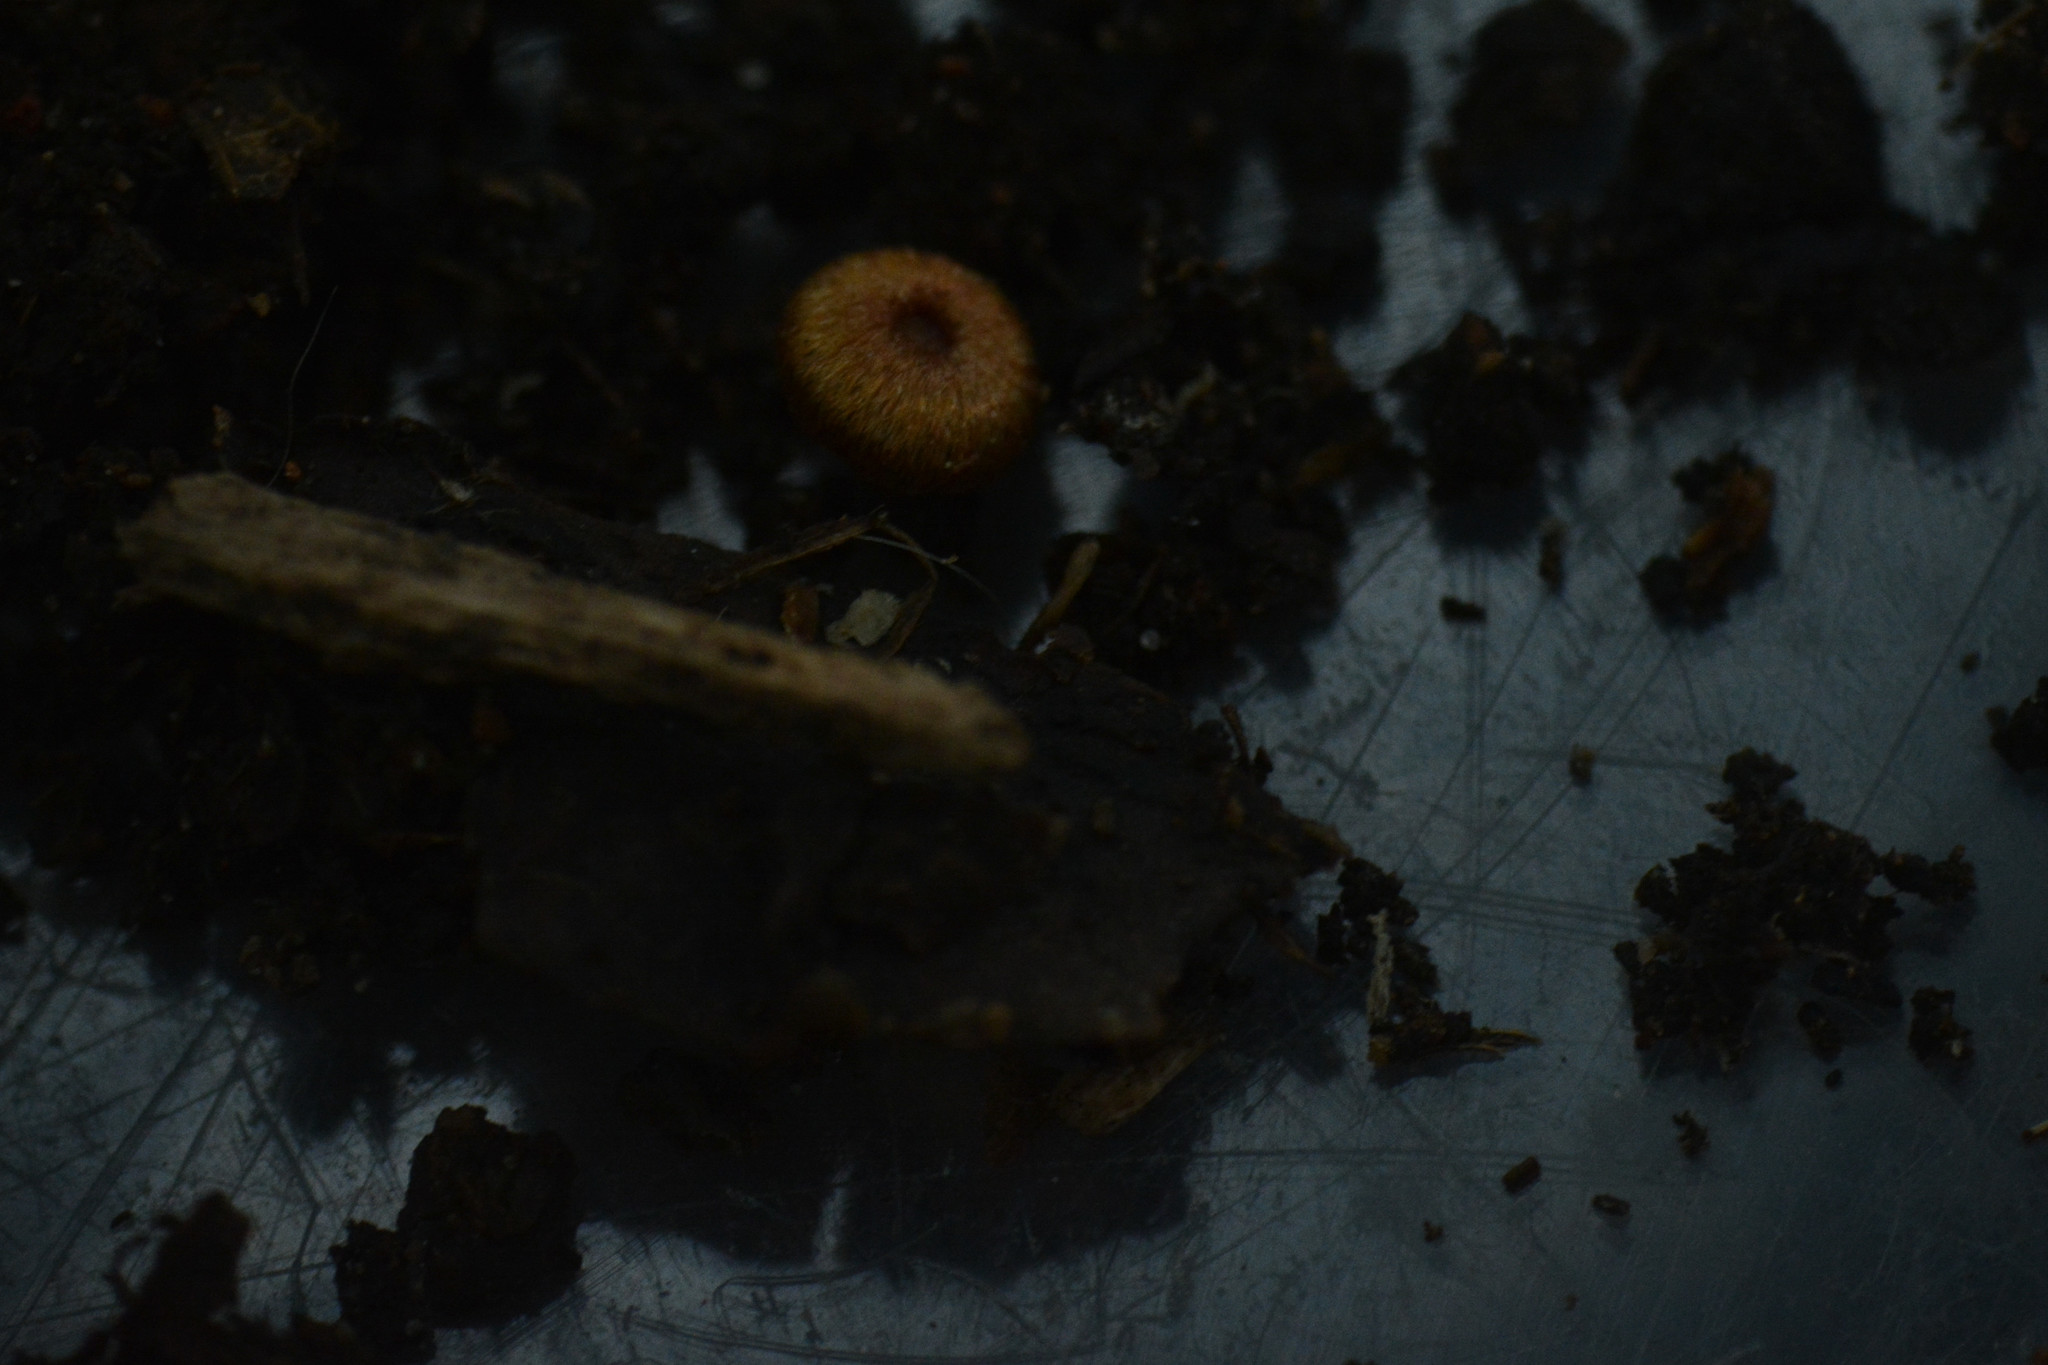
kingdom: Animalia
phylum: Arthropoda
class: Insecta
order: Hymenoptera
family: Cynipidae
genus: Neuroterus
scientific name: Neuroterus numismalis
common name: Silk-button spangle gall
